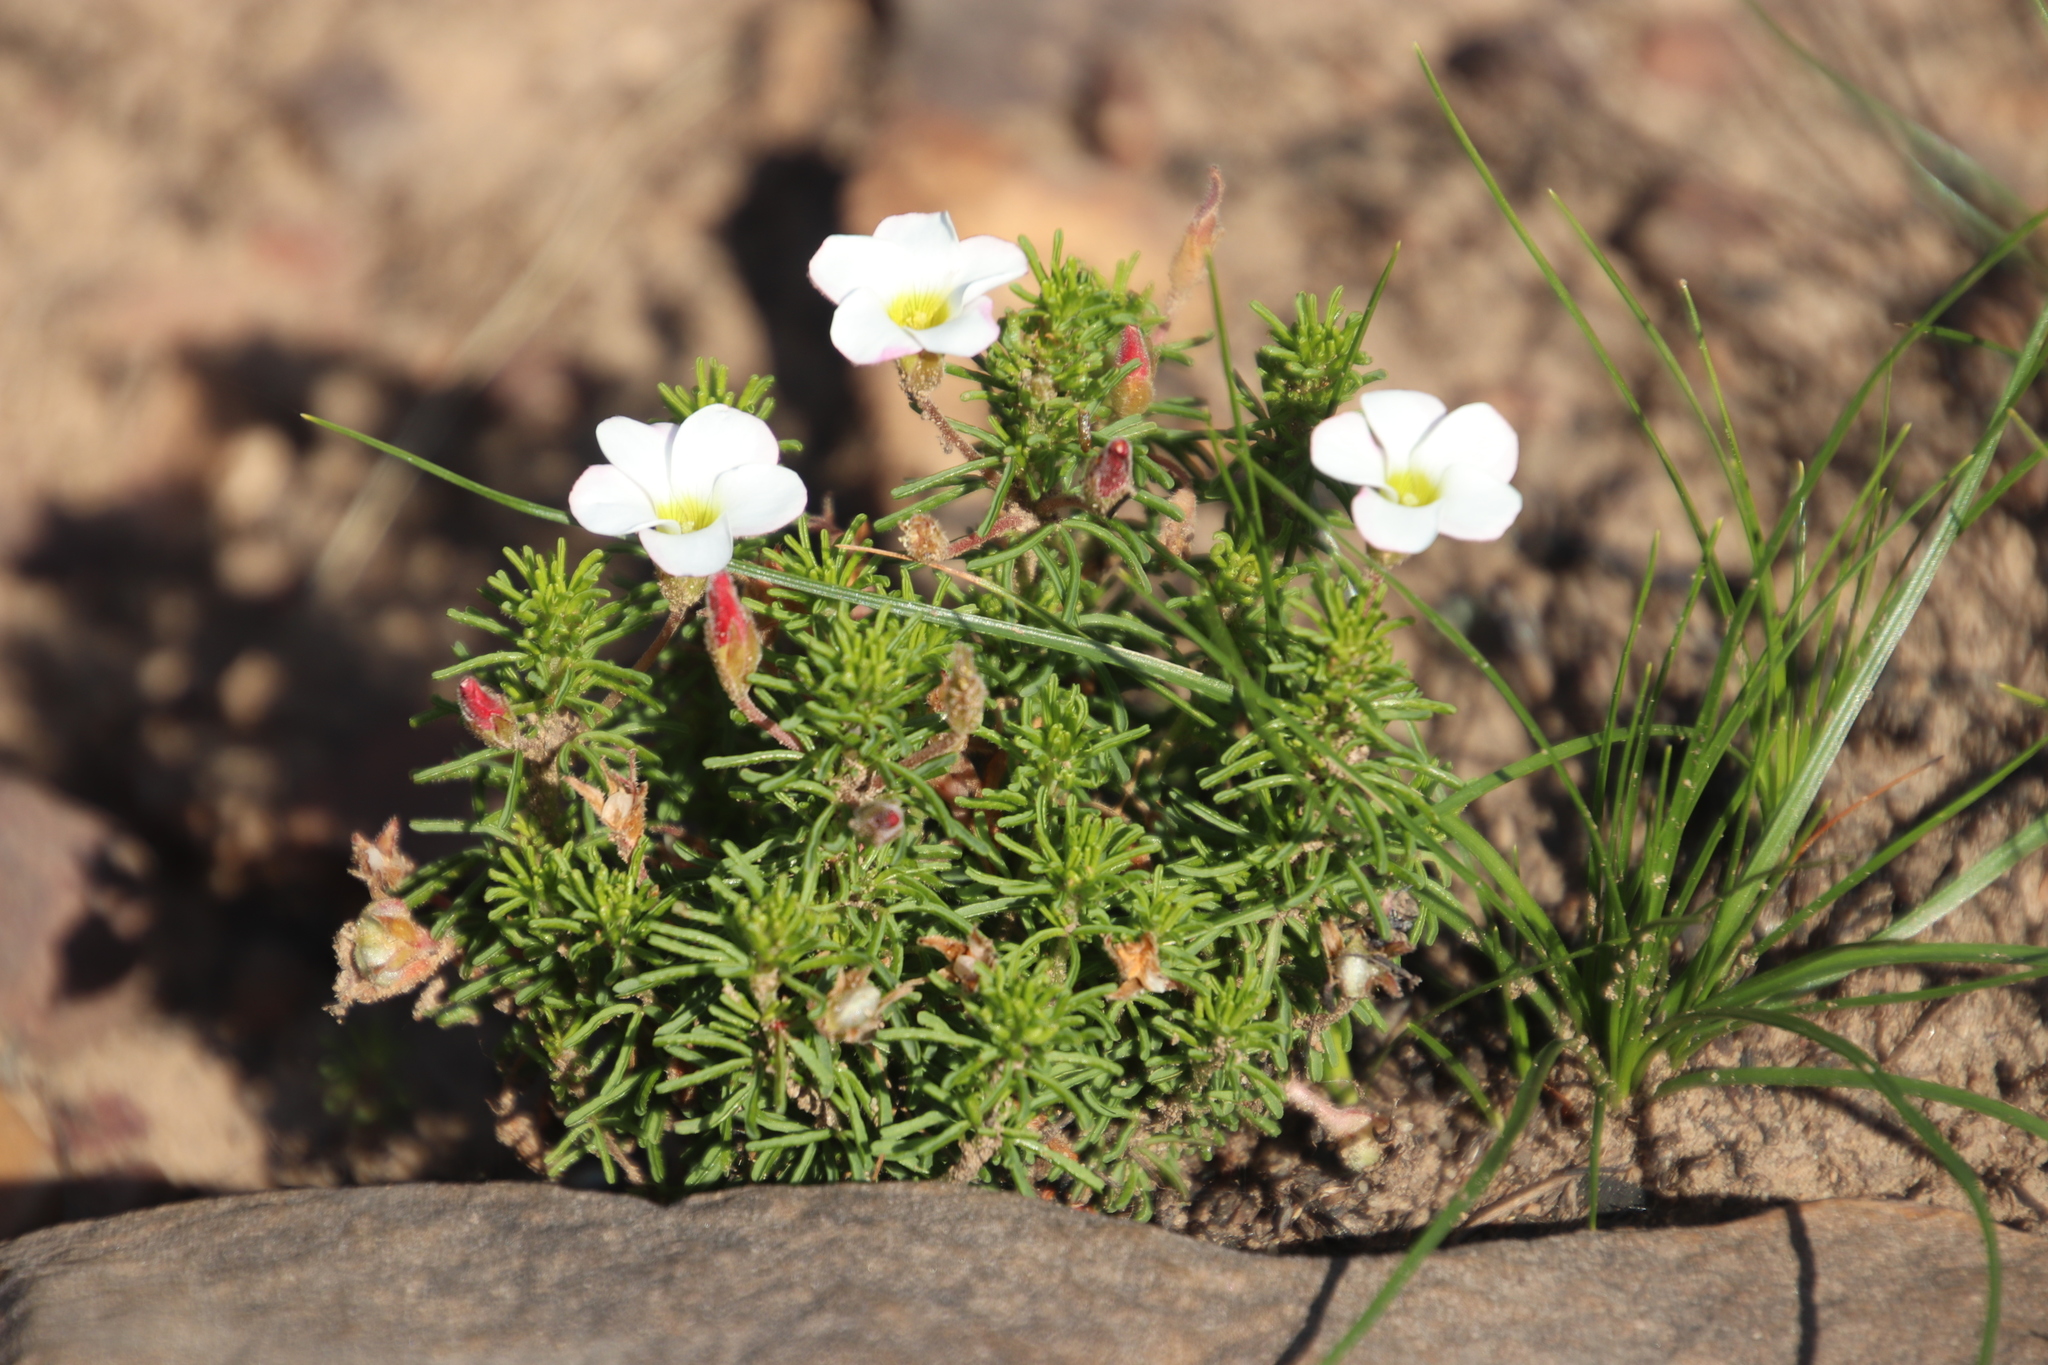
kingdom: Plantae
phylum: Tracheophyta
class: Magnoliopsida
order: Oxalidales
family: Oxalidaceae
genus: Oxalis
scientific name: Oxalis tenuifolia
